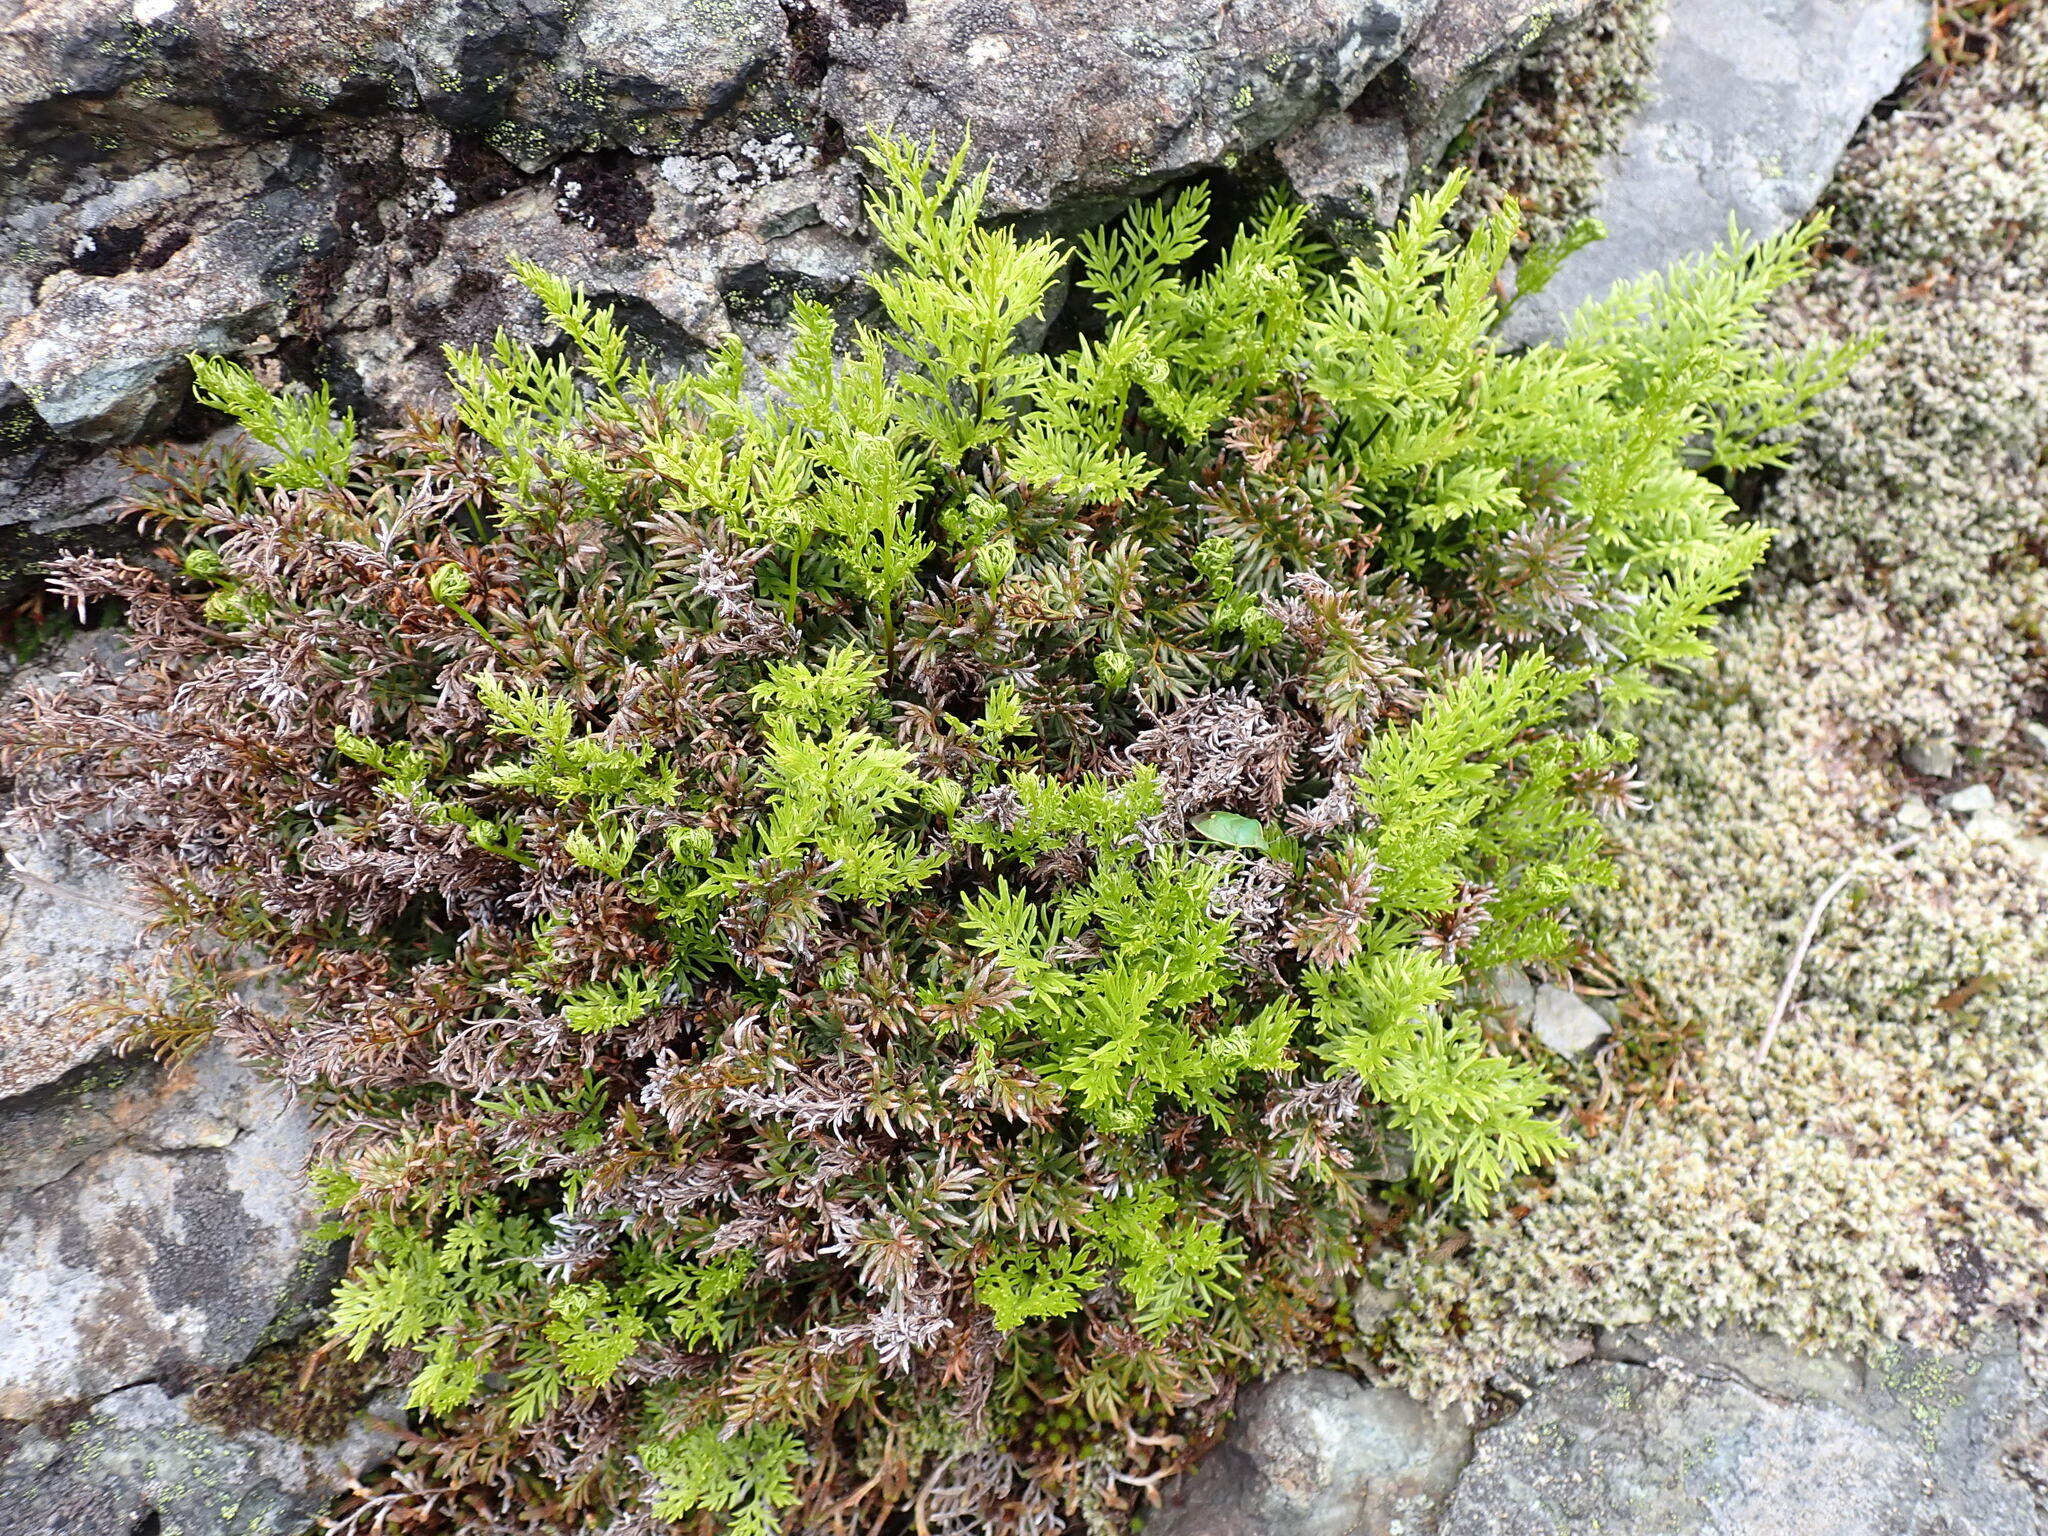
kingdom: Plantae
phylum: Tracheophyta
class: Polypodiopsida
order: Polypodiales
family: Pteridaceae
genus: Aspidotis
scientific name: Aspidotis densa
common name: Indian's dream
